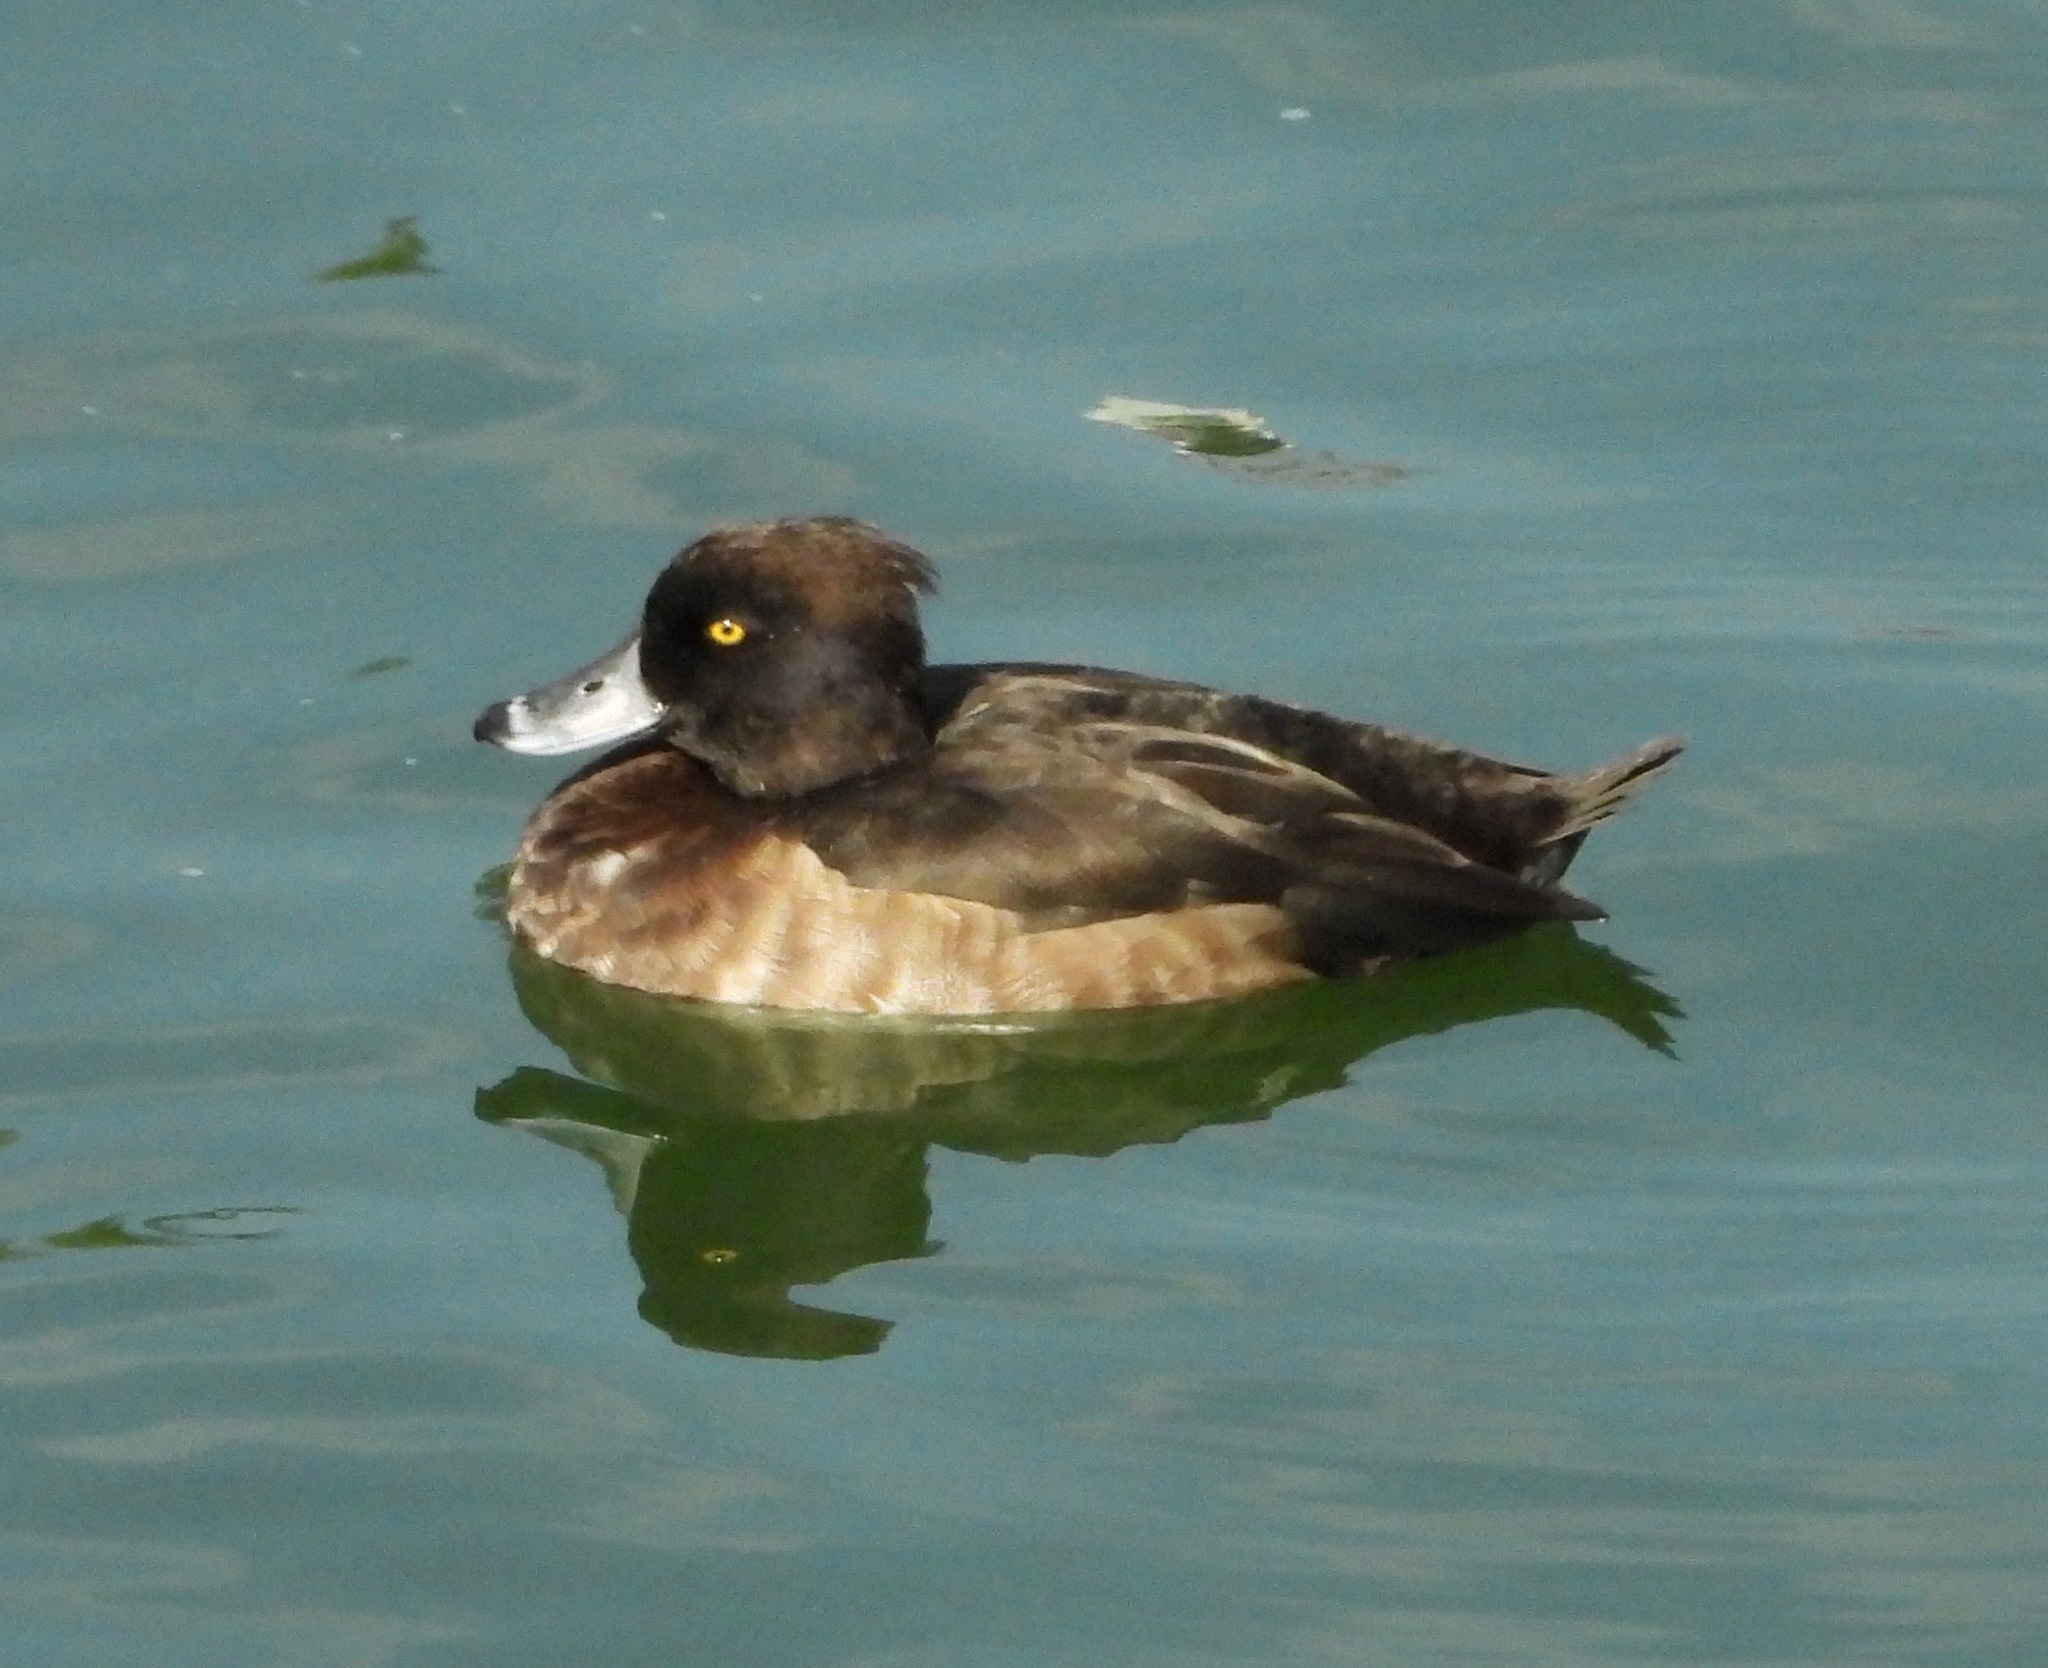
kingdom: Animalia
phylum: Chordata
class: Aves
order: Anseriformes
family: Anatidae
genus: Aythya
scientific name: Aythya fuligula
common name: Tufted duck
